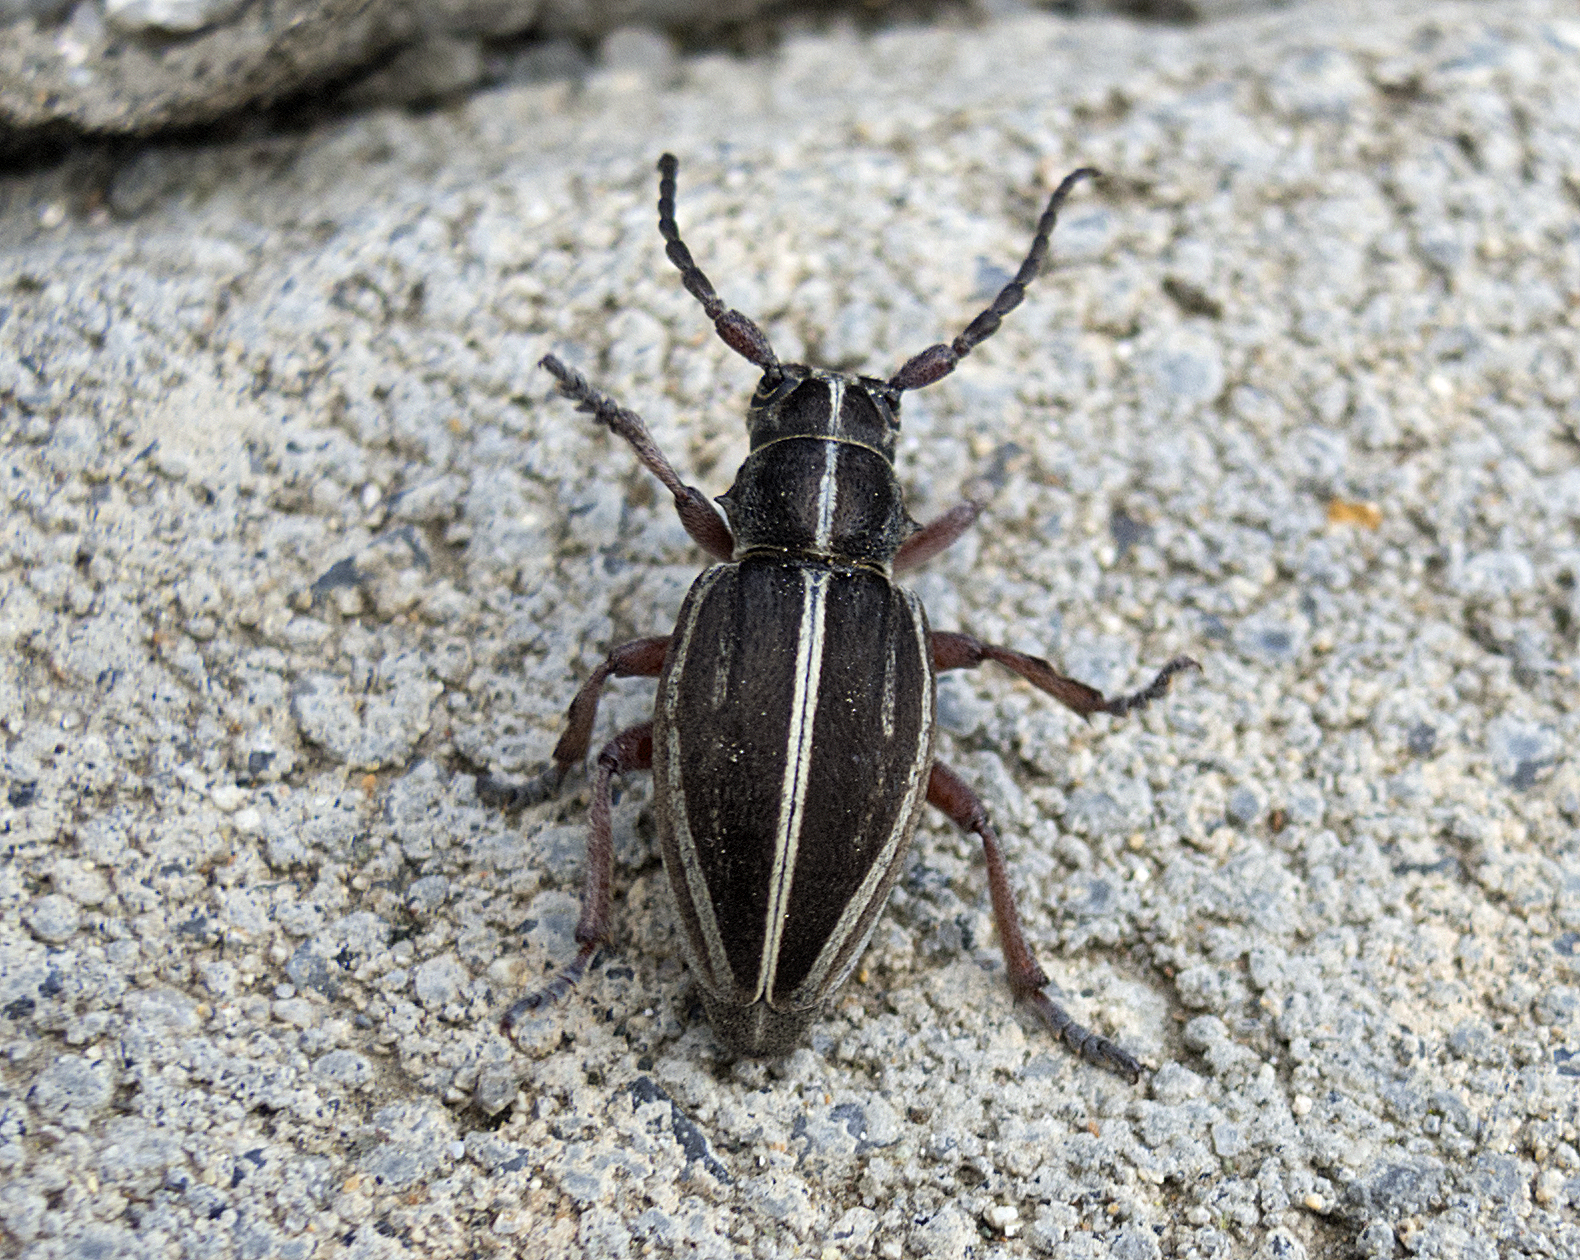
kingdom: Animalia
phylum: Arthropoda
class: Insecta
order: Coleoptera
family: Cerambycidae
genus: Dorcadion
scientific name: Dorcadion tauricum
